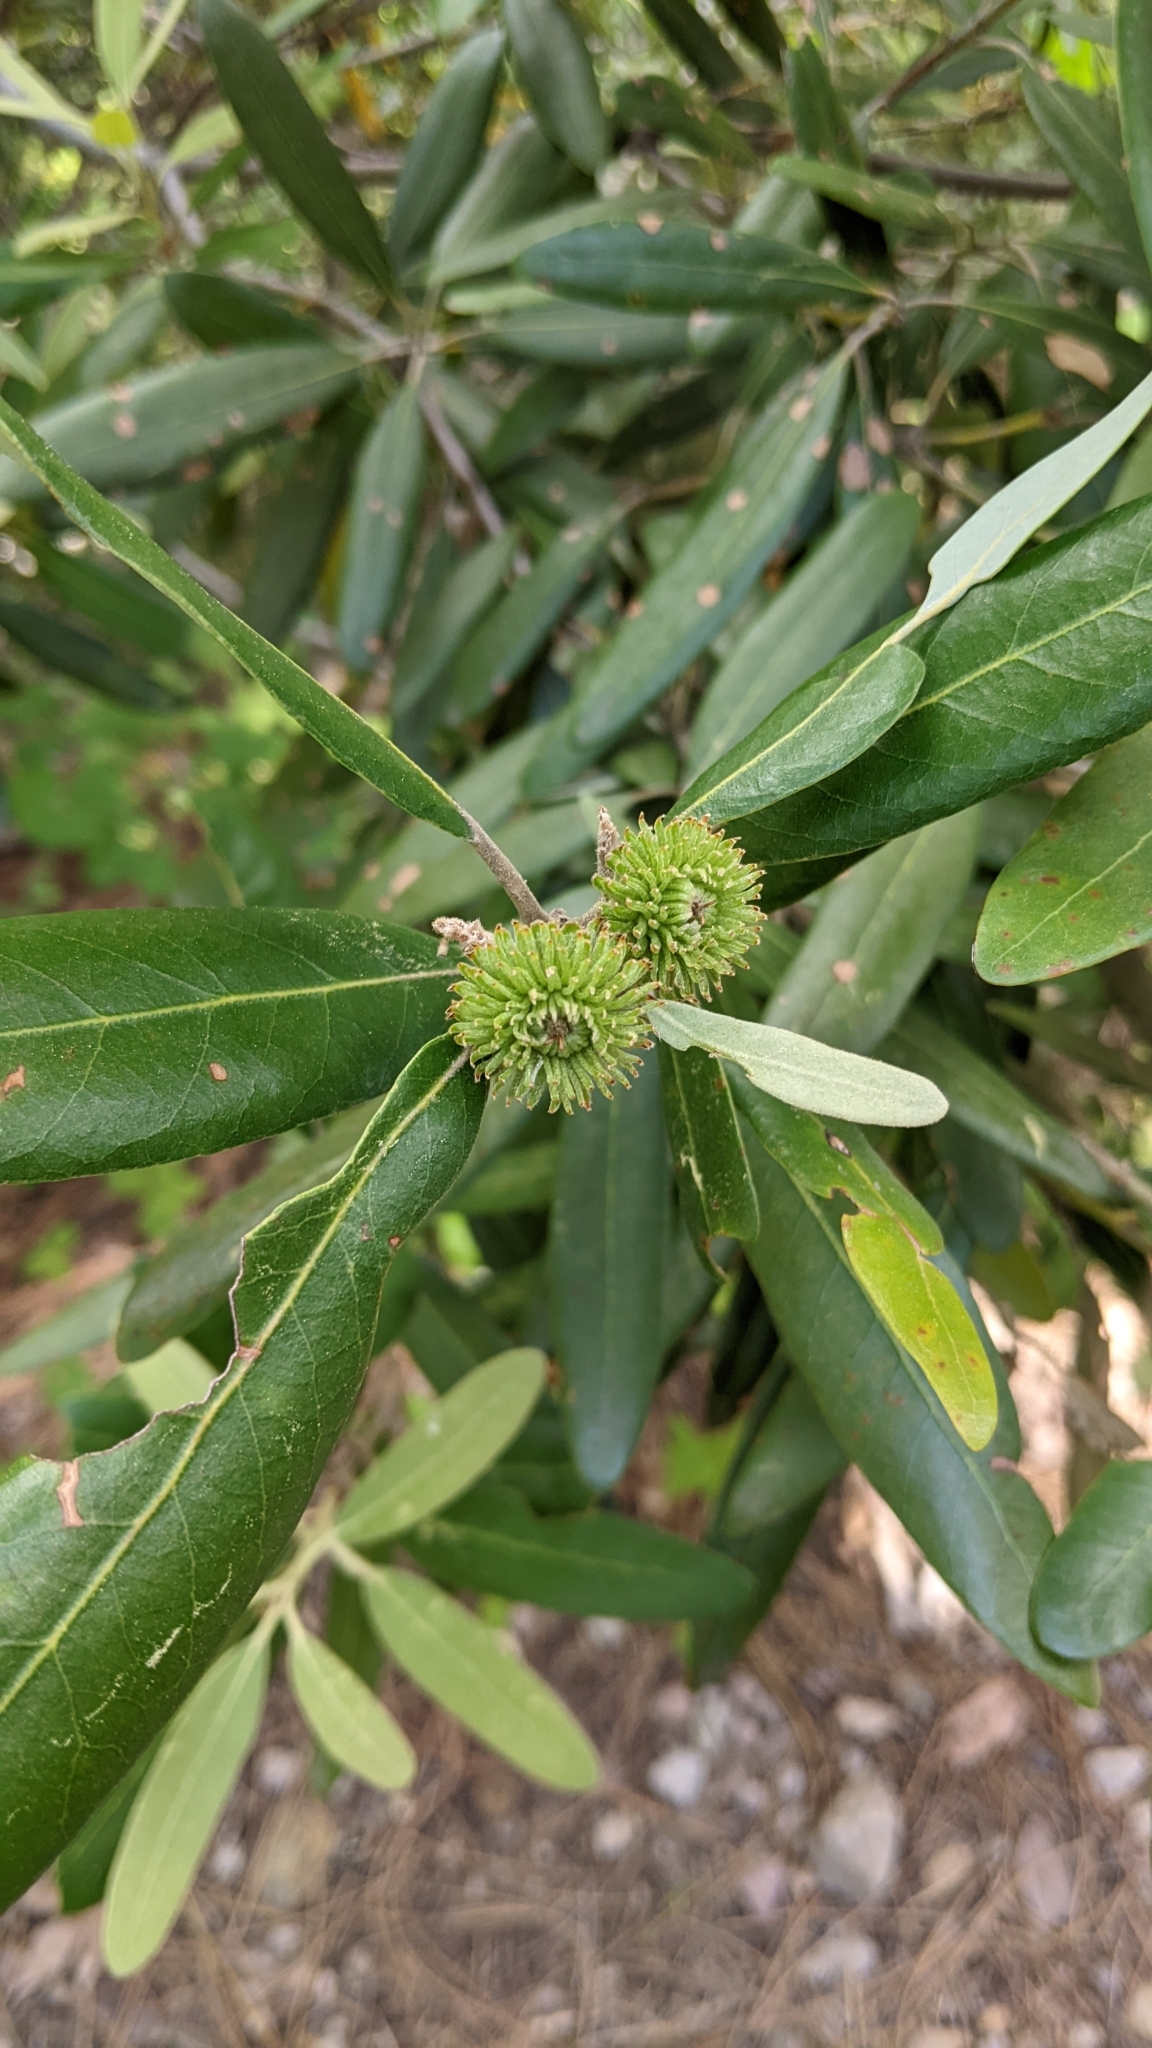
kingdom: Plantae
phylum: Tracheophyta
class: Magnoliopsida
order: Fagales
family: Fagaceae
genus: Notholithocarpus
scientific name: Notholithocarpus densiflorus
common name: Tan bark oak
